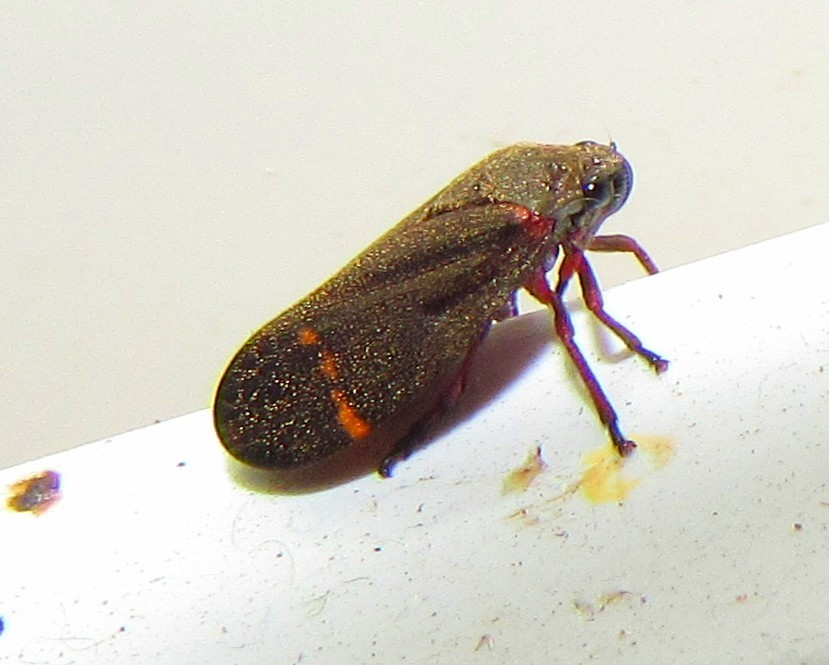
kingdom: Animalia
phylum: Arthropoda
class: Insecta
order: Hemiptera
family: Cercopidae
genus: Deois
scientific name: Deois schach
